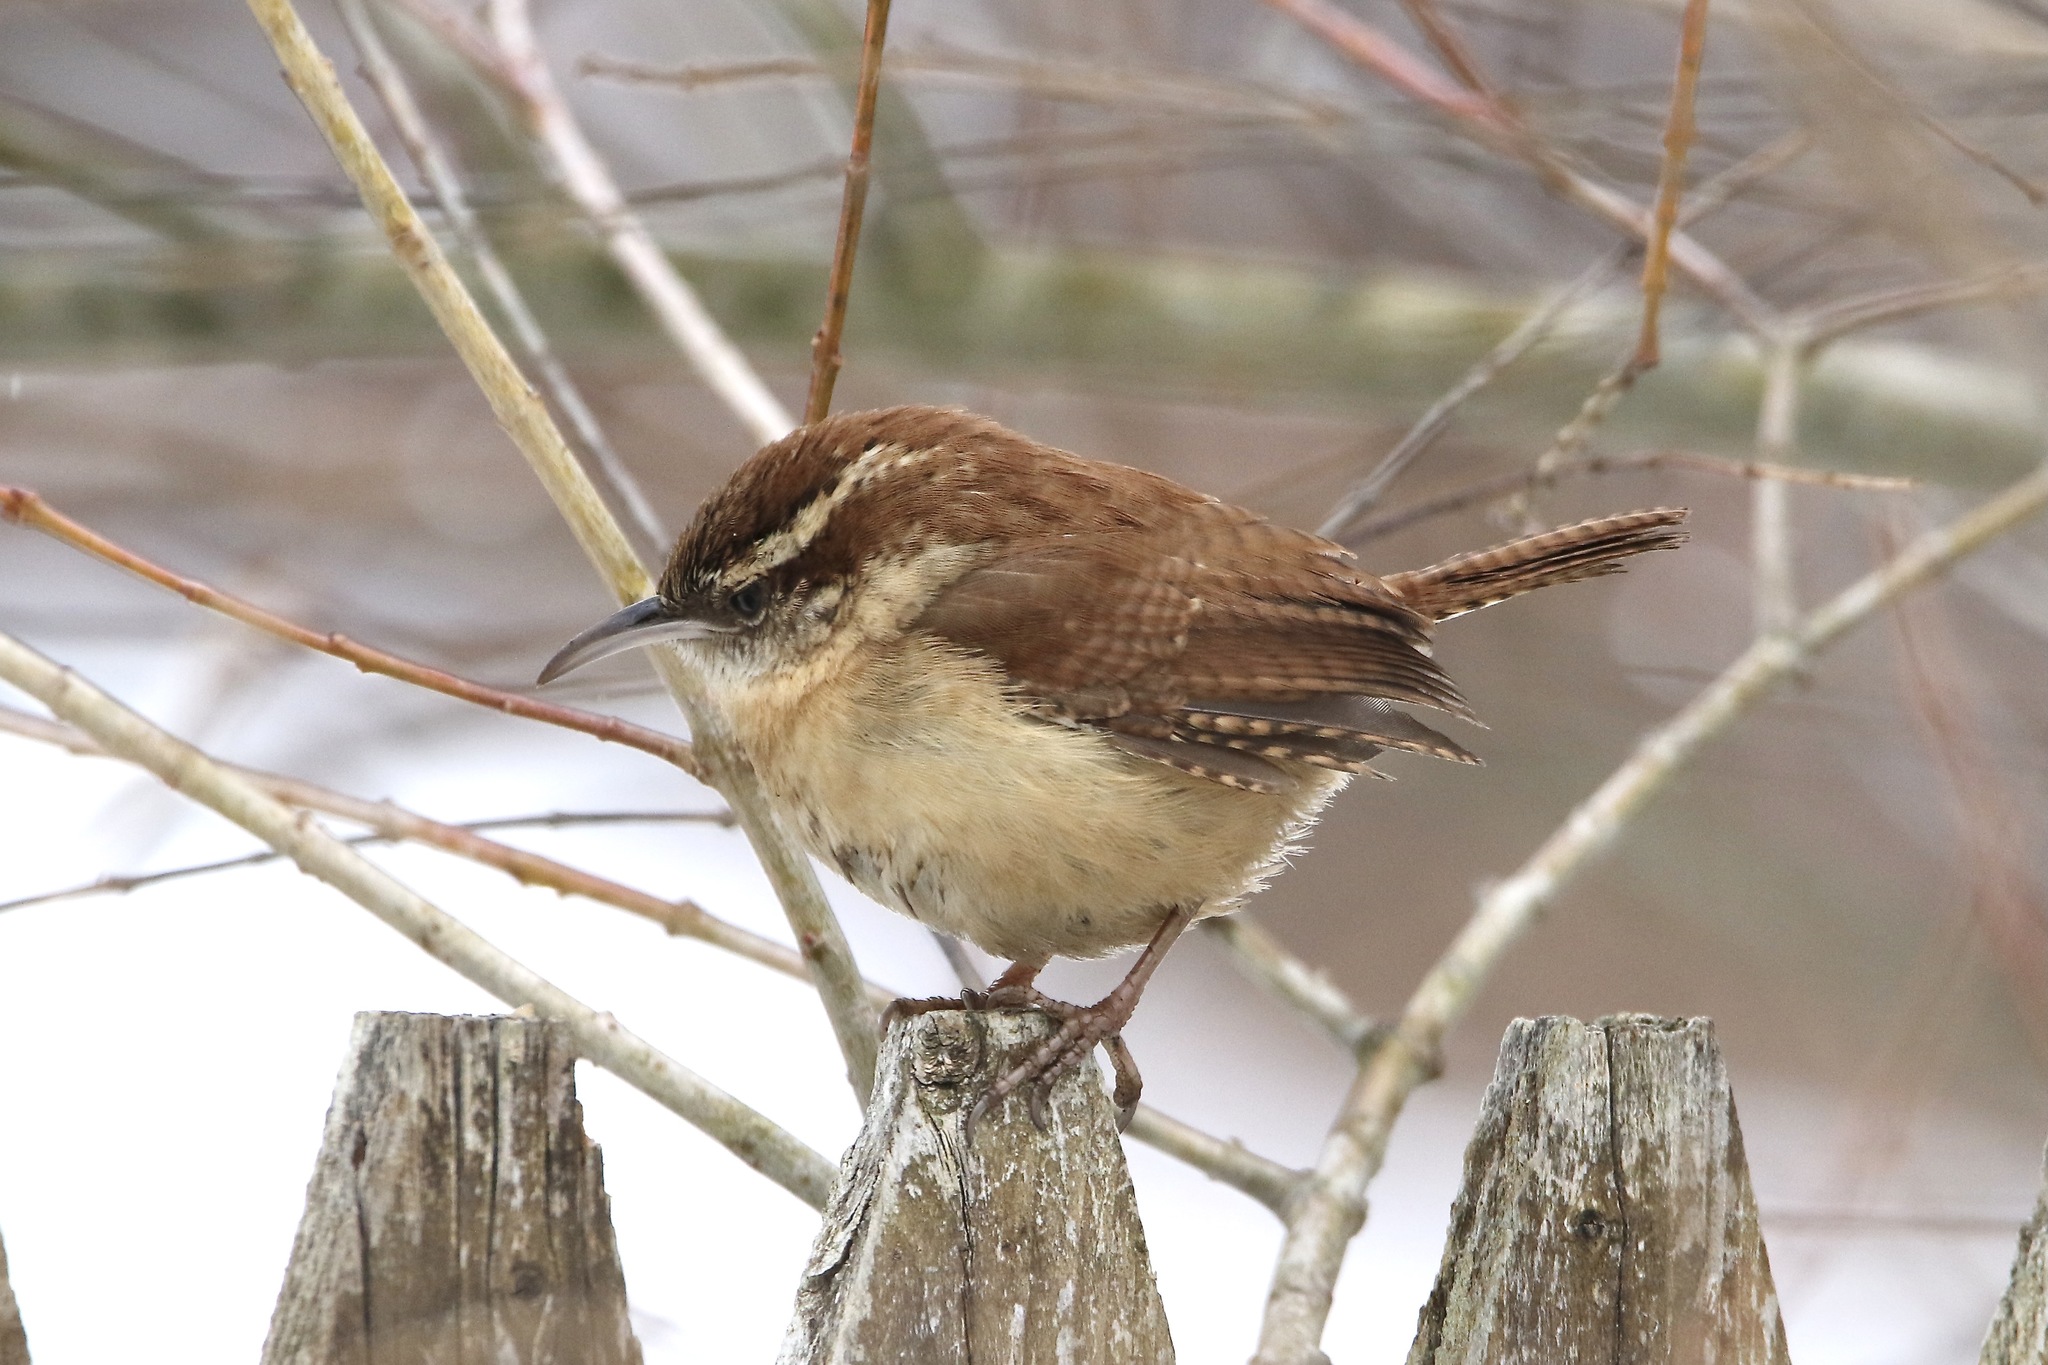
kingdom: Animalia
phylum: Chordata
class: Aves
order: Passeriformes
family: Troglodytidae
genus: Thryothorus
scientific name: Thryothorus ludovicianus
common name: Carolina wren
